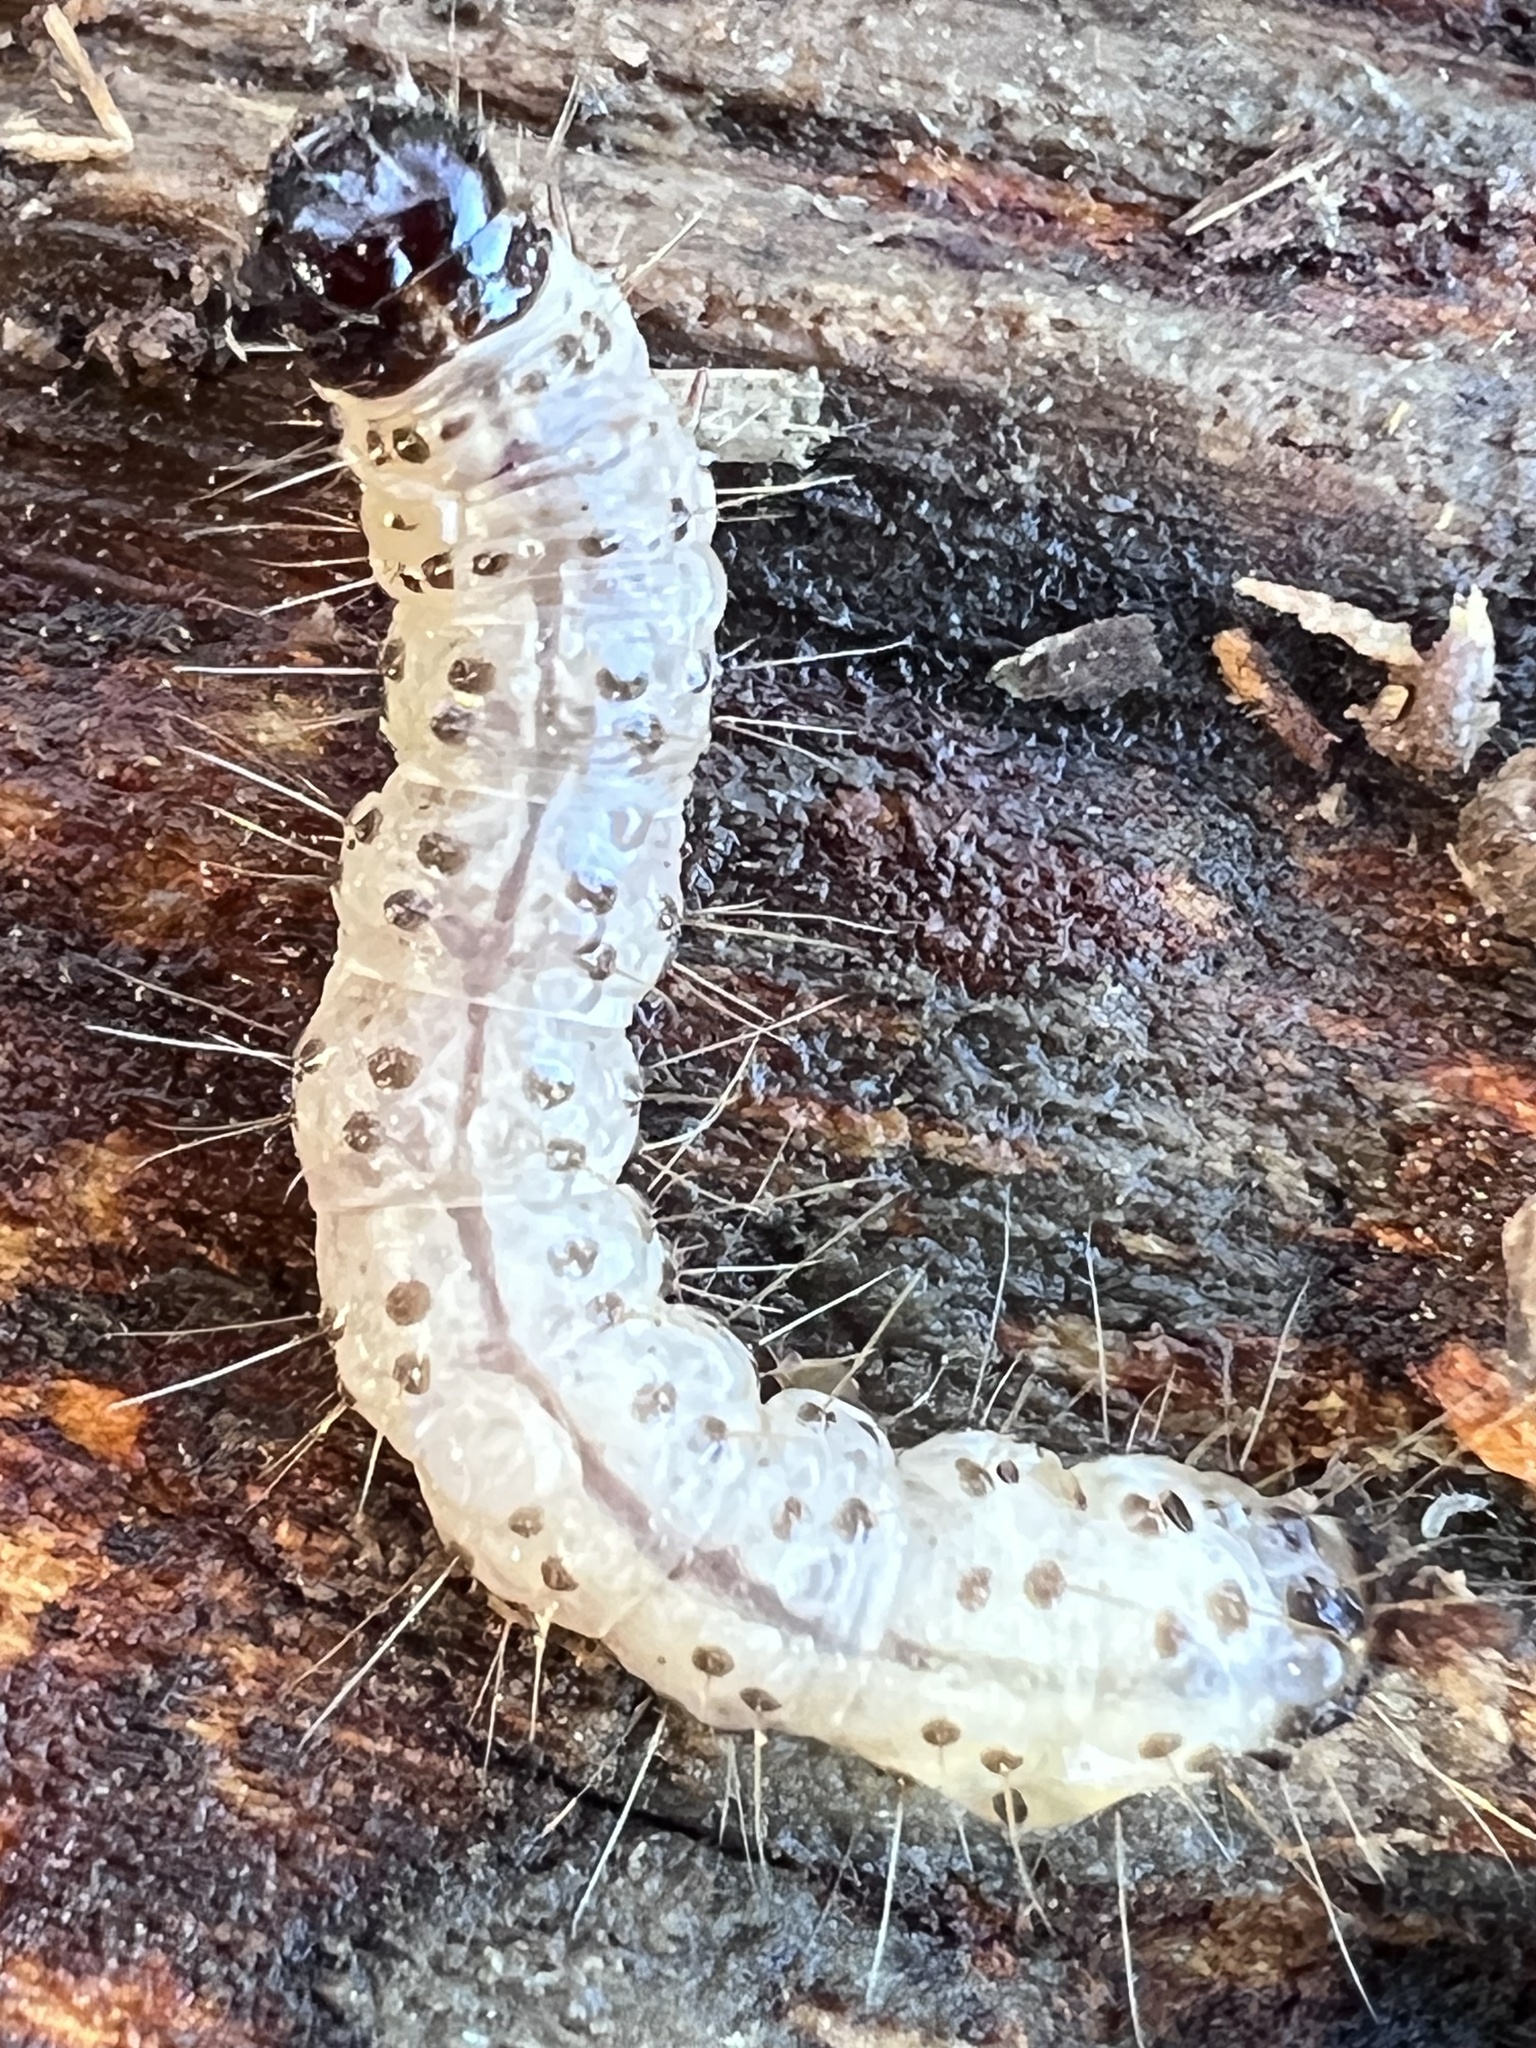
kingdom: Animalia
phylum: Arthropoda
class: Insecta
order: Lepidoptera
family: Erebidae
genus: Scolecocampa
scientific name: Scolecocampa liburna
